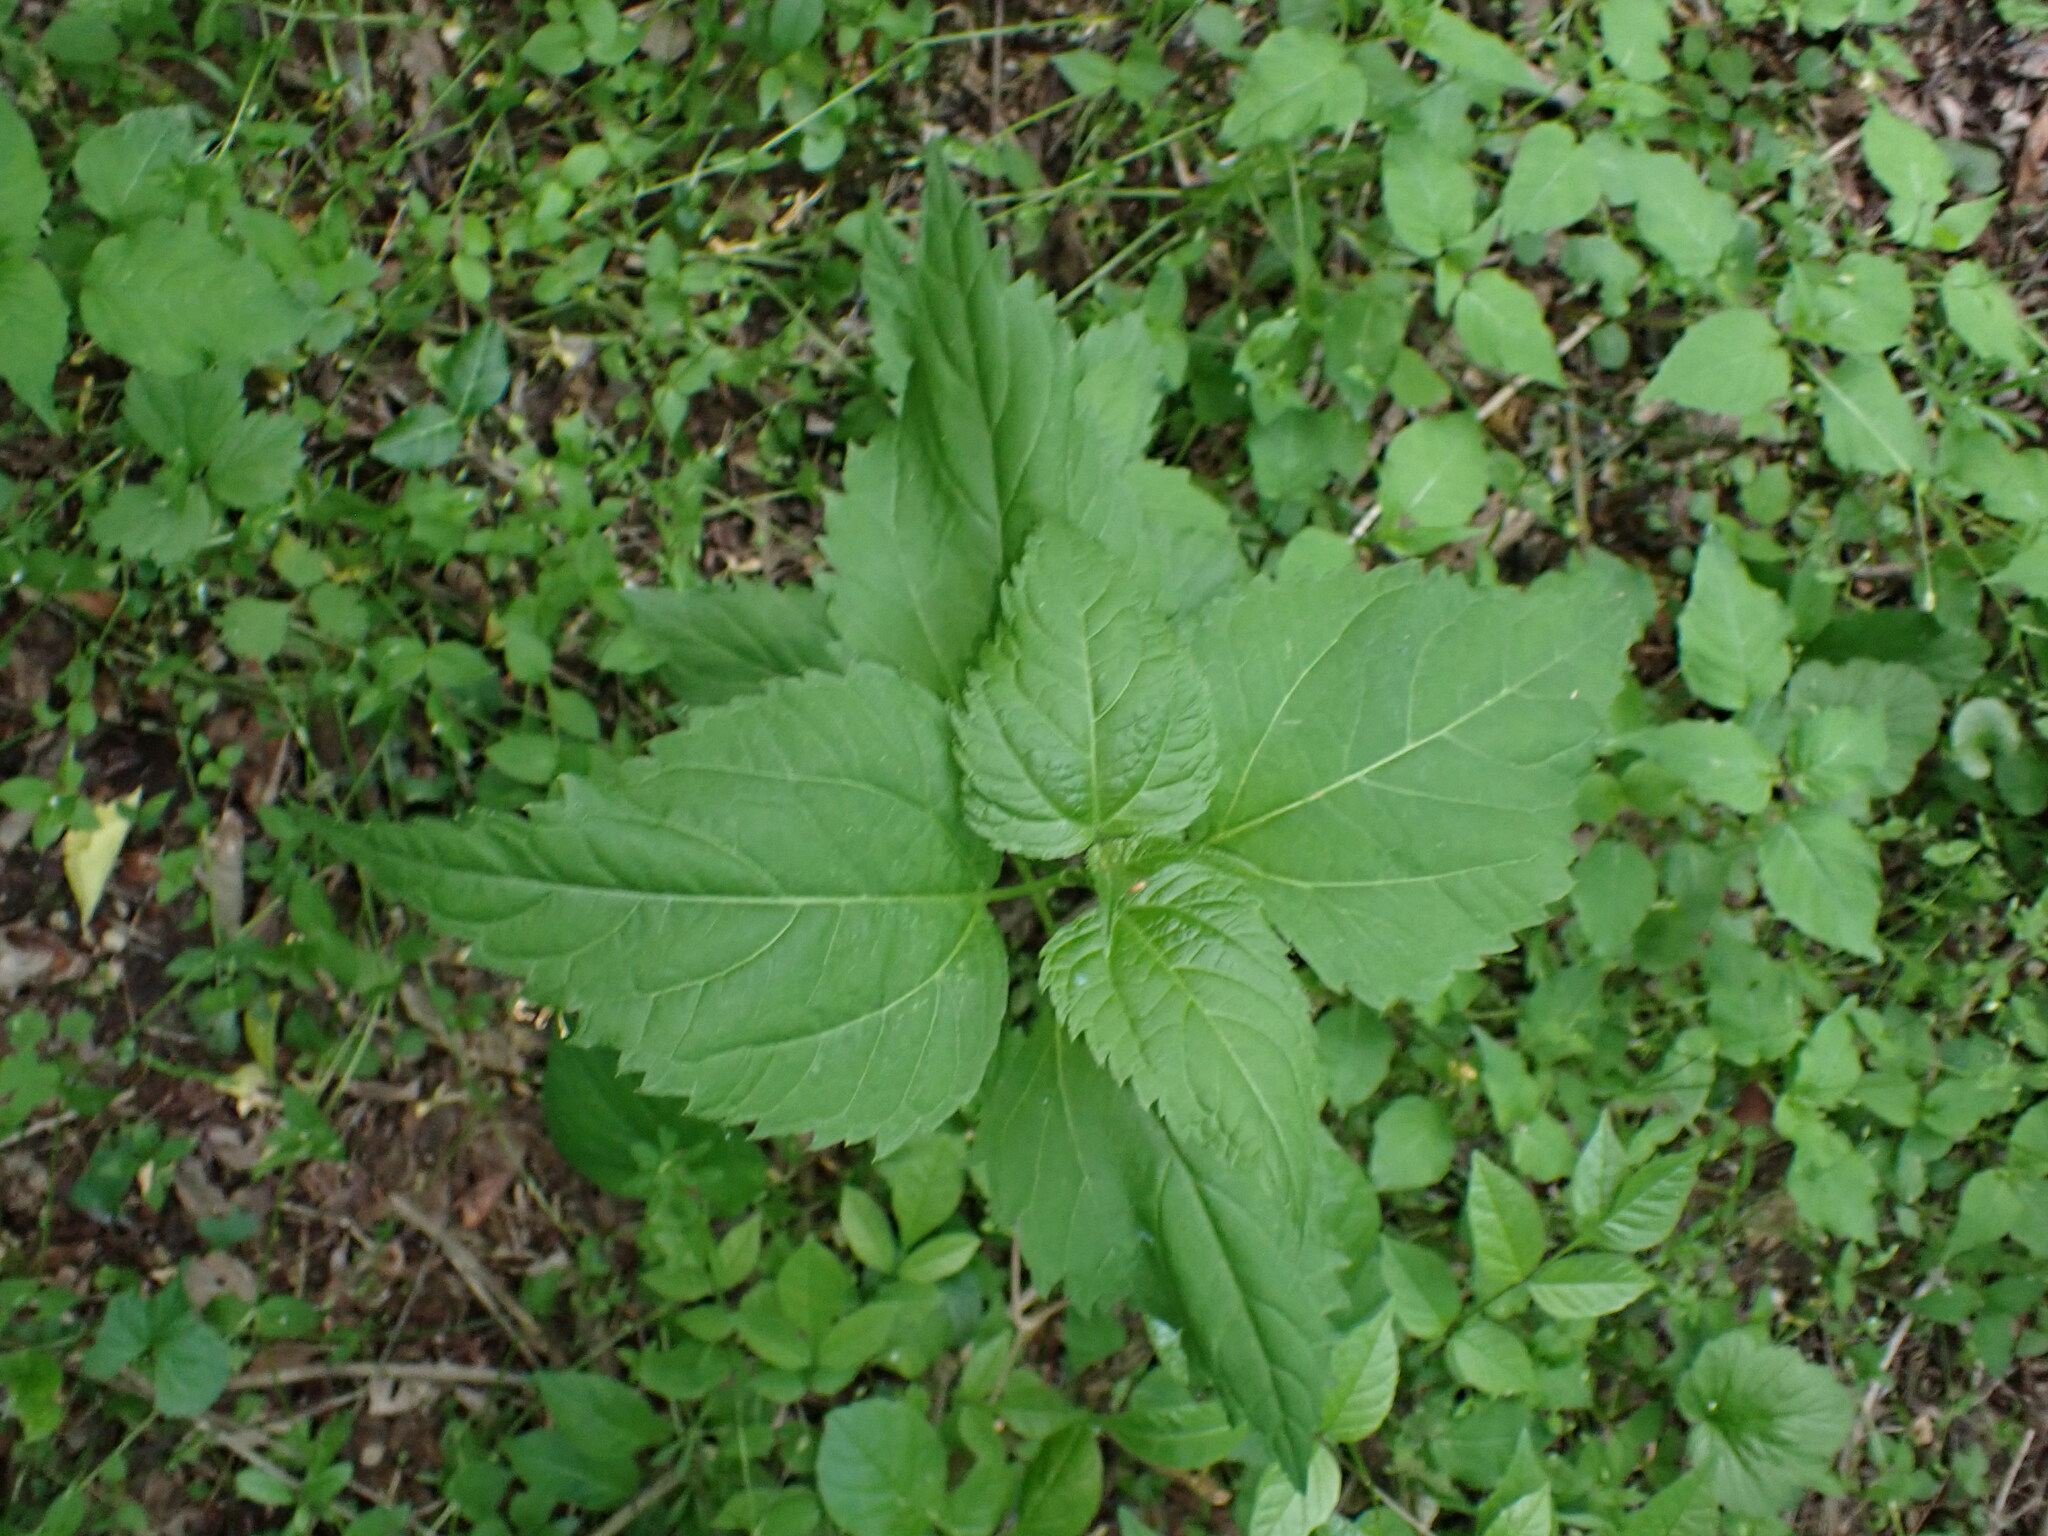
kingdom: Plantae
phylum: Tracheophyta
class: Magnoliopsida
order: Asterales
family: Asteraceae
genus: Ageratina
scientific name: Ageratina altissima
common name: White snakeroot
